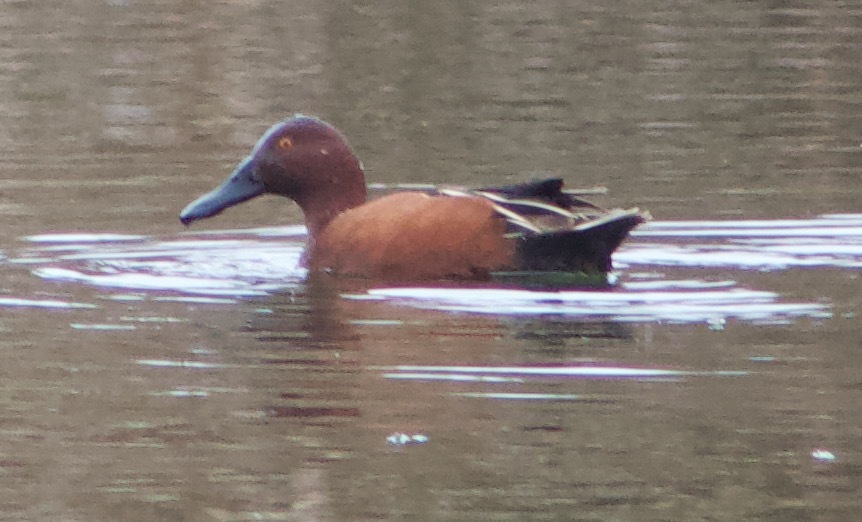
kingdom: Animalia
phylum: Chordata
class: Aves
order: Anseriformes
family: Anatidae
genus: Spatula
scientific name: Spatula cyanoptera
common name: Cinnamon teal
